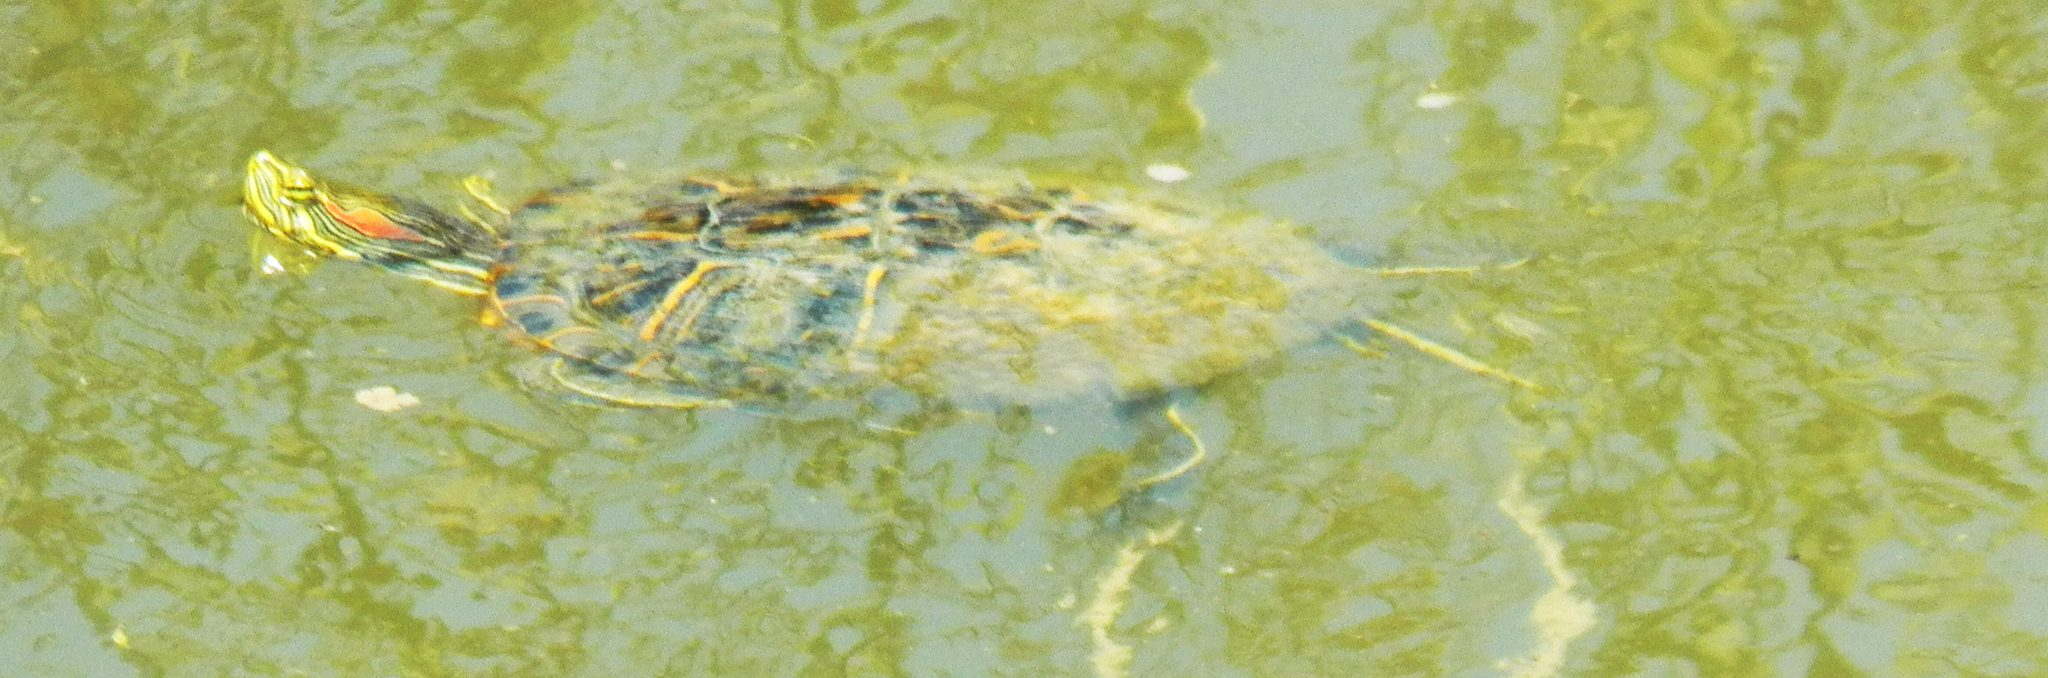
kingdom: Animalia
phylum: Chordata
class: Testudines
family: Emydidae
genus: Trachemys
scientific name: Trachemys scripta
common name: Slider
